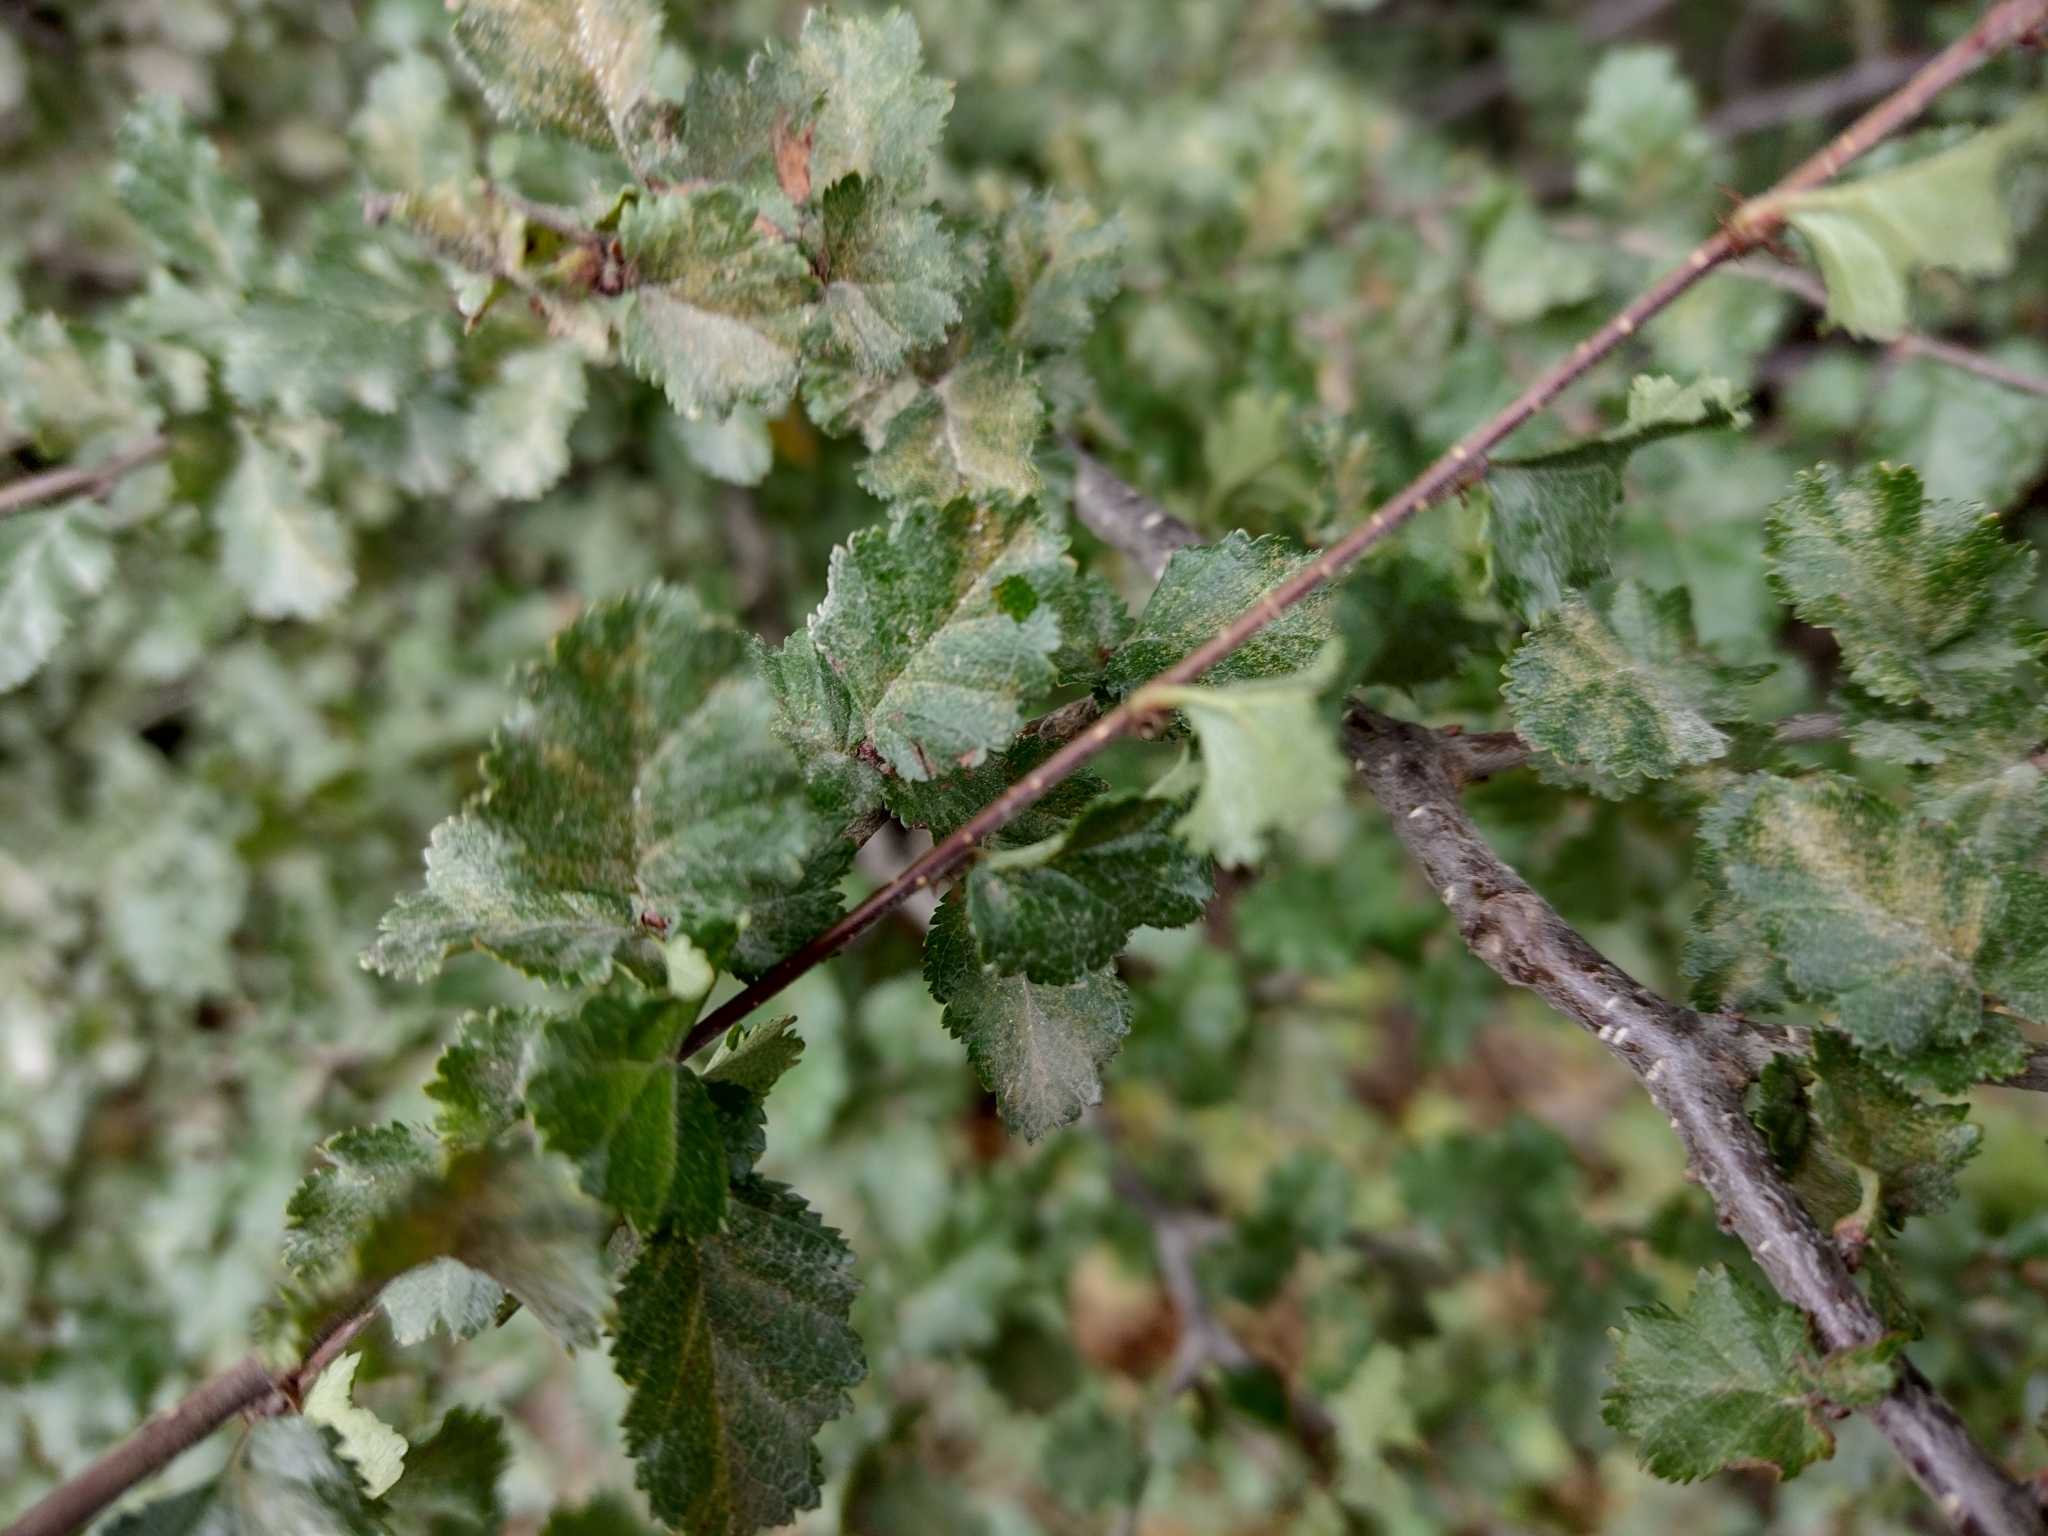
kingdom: Plantae
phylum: Tracheophyta
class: Magnoliopsida
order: Fagales
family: Nothofagaceae
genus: Nothofagus
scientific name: Nothofagus antarctica
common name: Antarctic beech
